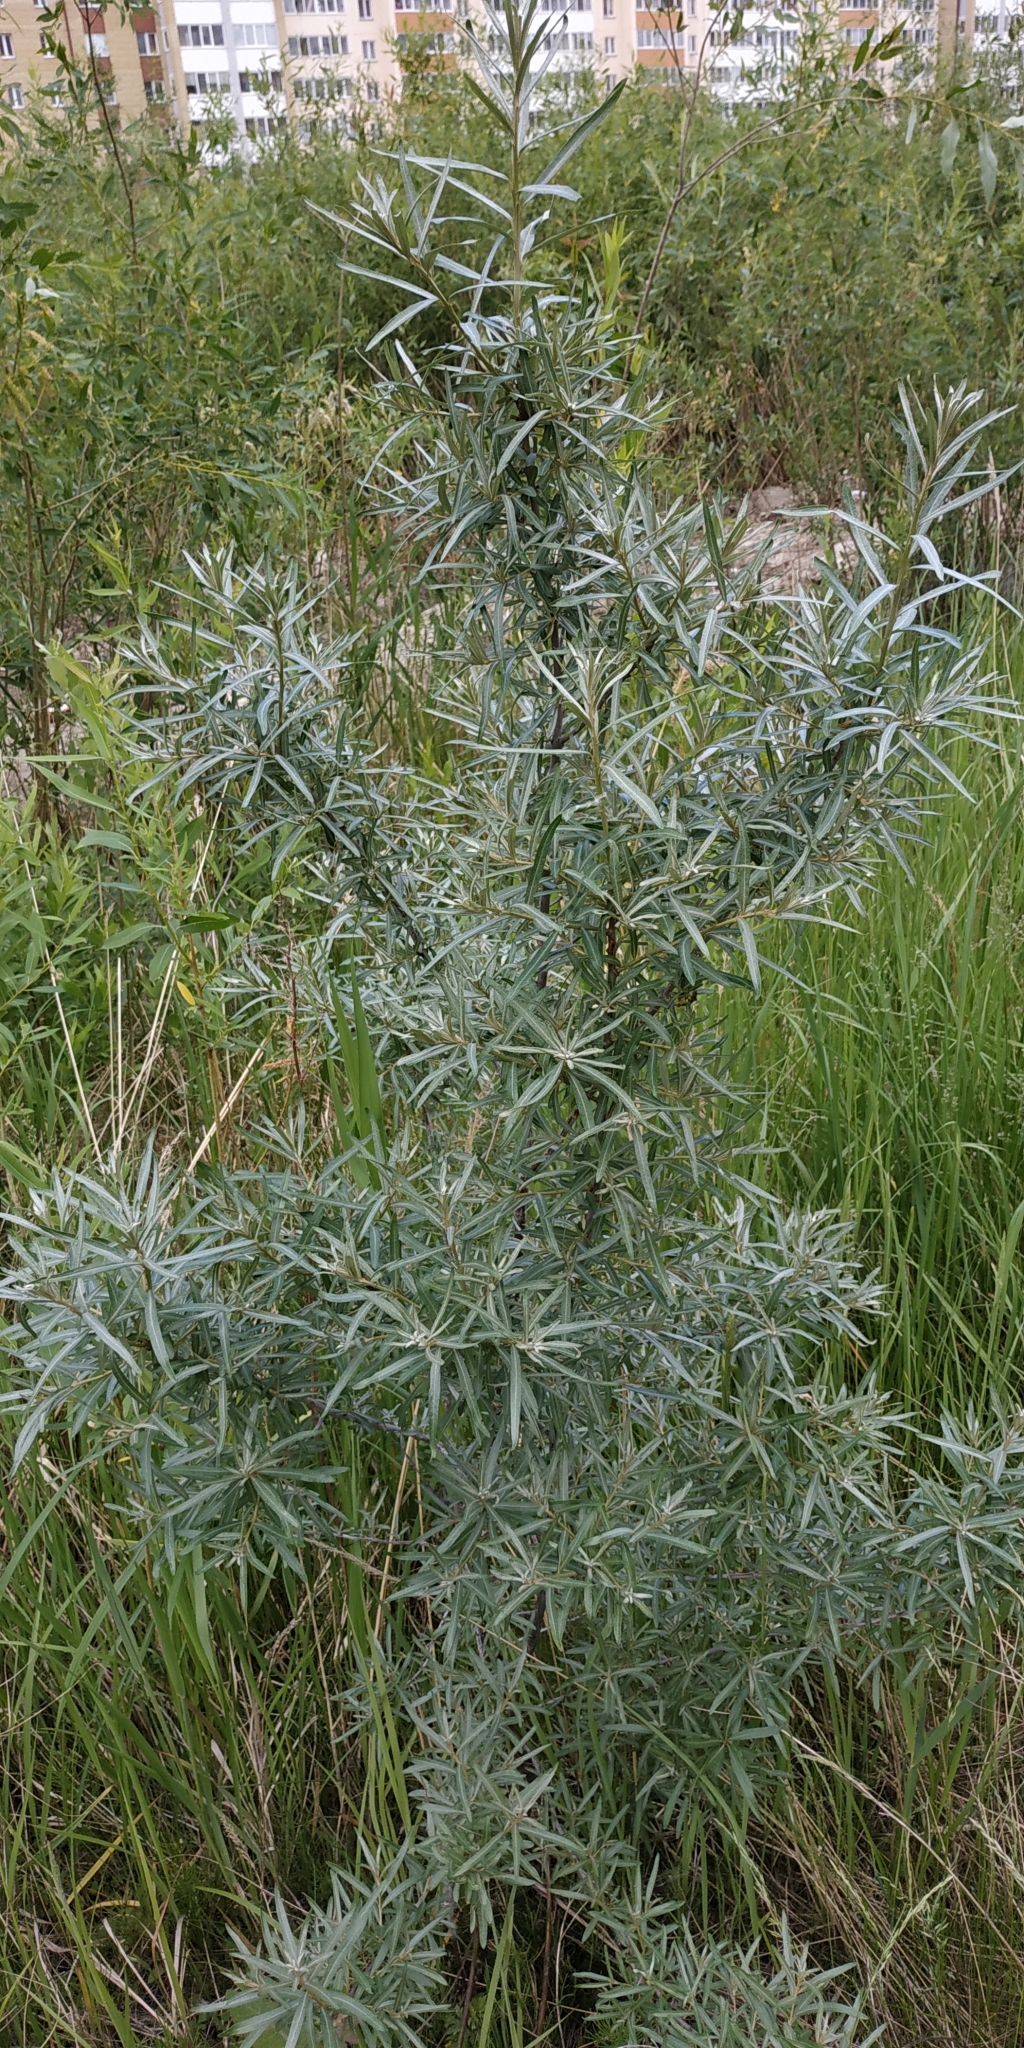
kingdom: Plantae
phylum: Tracheophyta
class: Magnoliopsida
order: Rosales
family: Elaeagnaceae
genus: Hippophae
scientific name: Hippophae rhamnoides
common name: Sea-buckthorn
